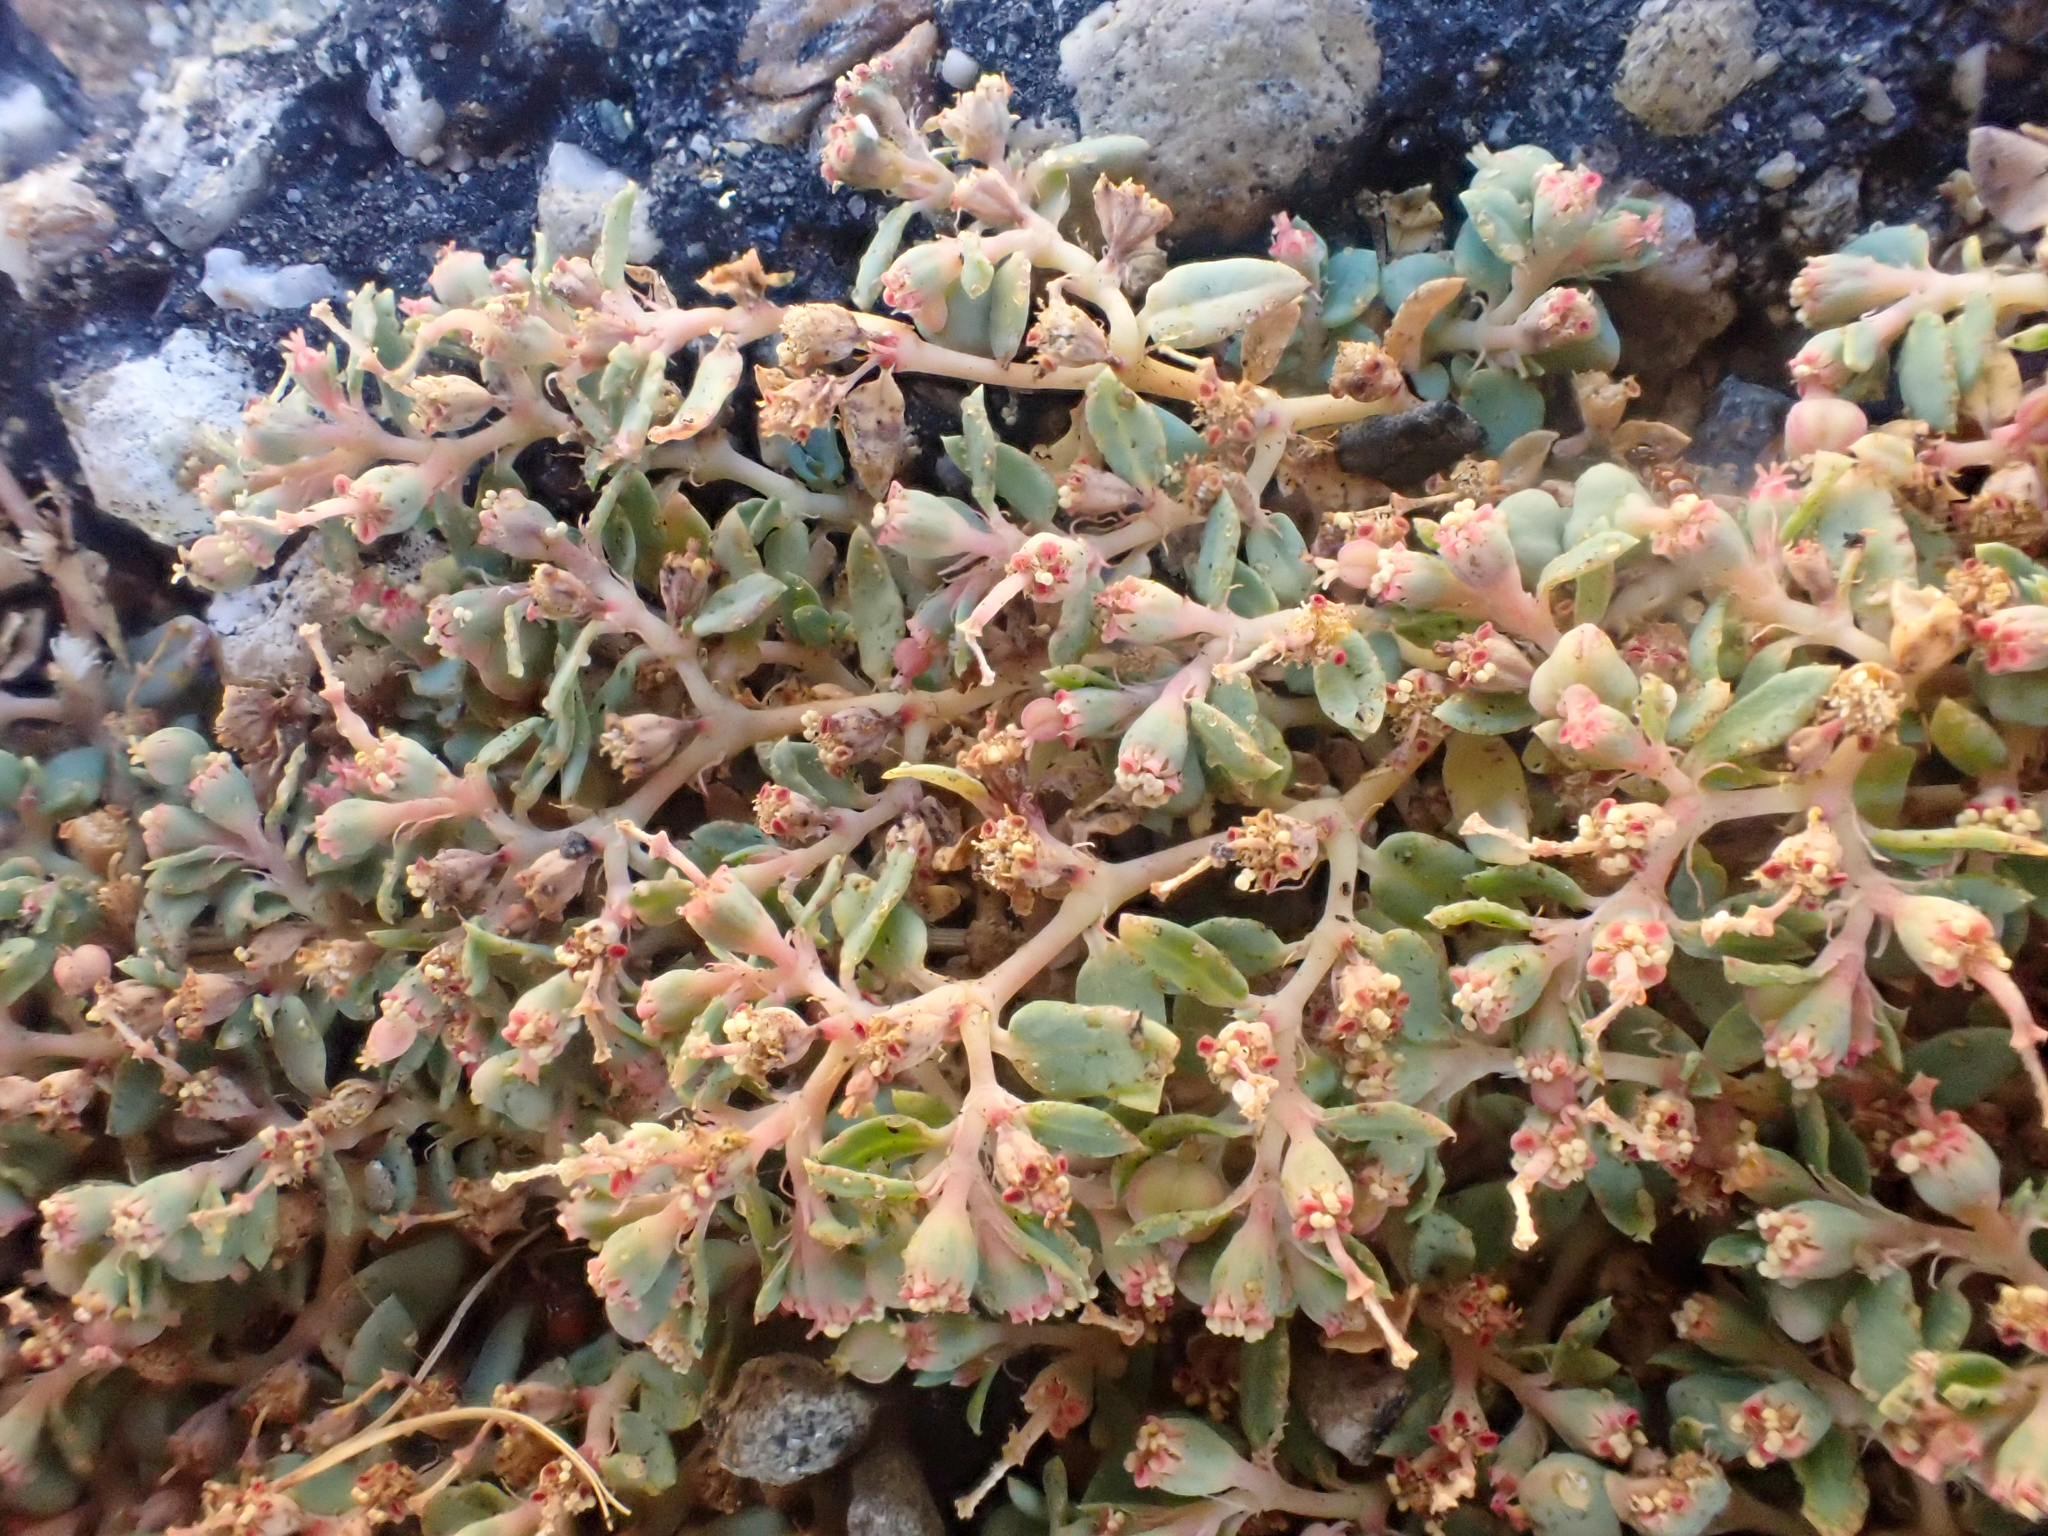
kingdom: Plantae
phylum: Tracheophyta
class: Magnoliopsida
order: Malpighiales
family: Euphorbiaceae
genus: Euphorbia
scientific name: Euphorbia ocellata
